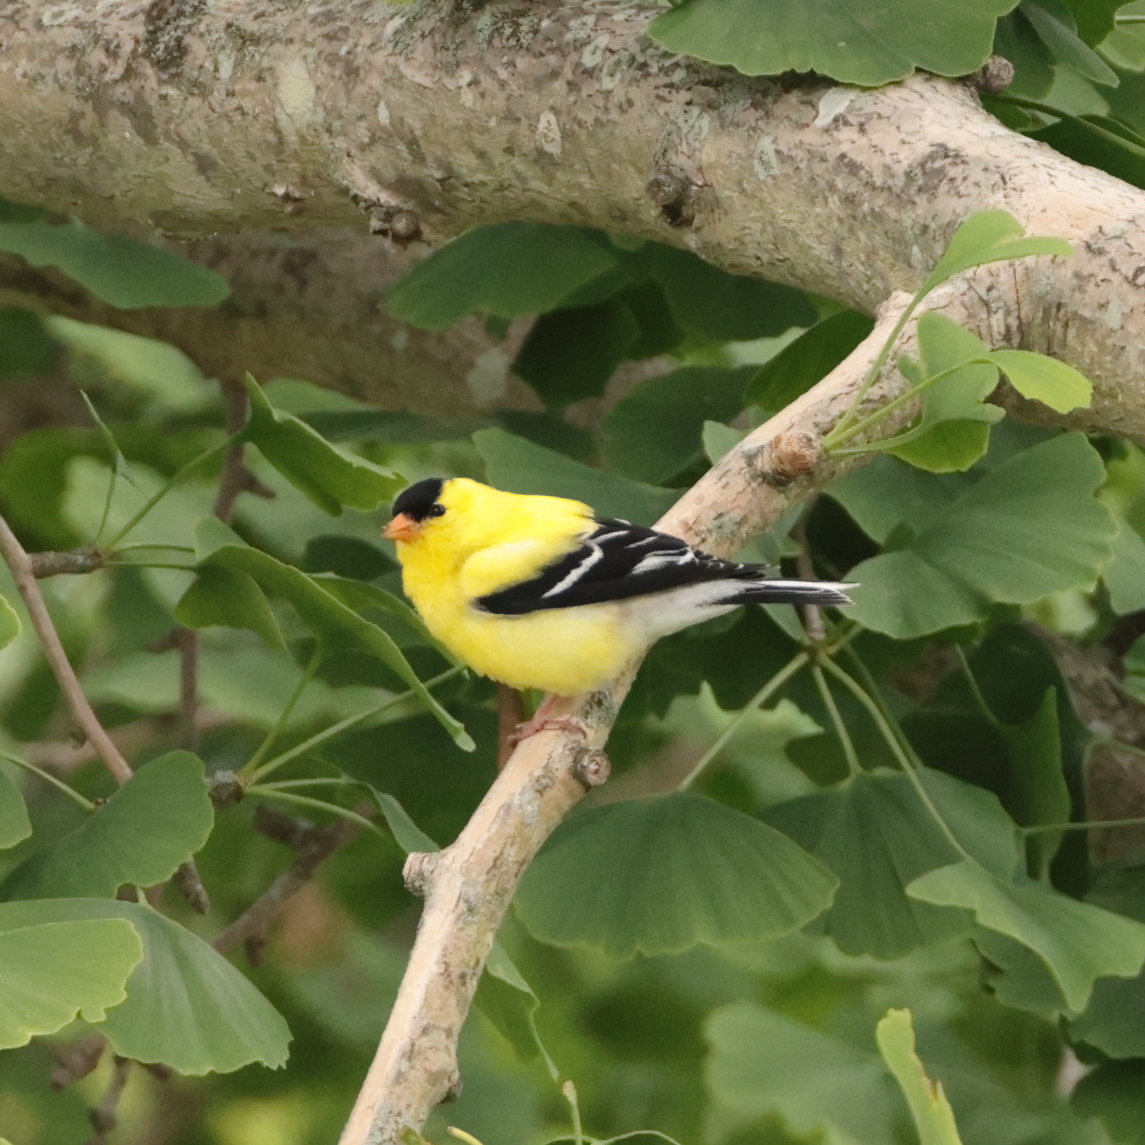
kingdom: Animalia
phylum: Chordata
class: Aves
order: Passeriformes
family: Fringillidae
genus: Spinus
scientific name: Spinus tristis
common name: American goldfinch
